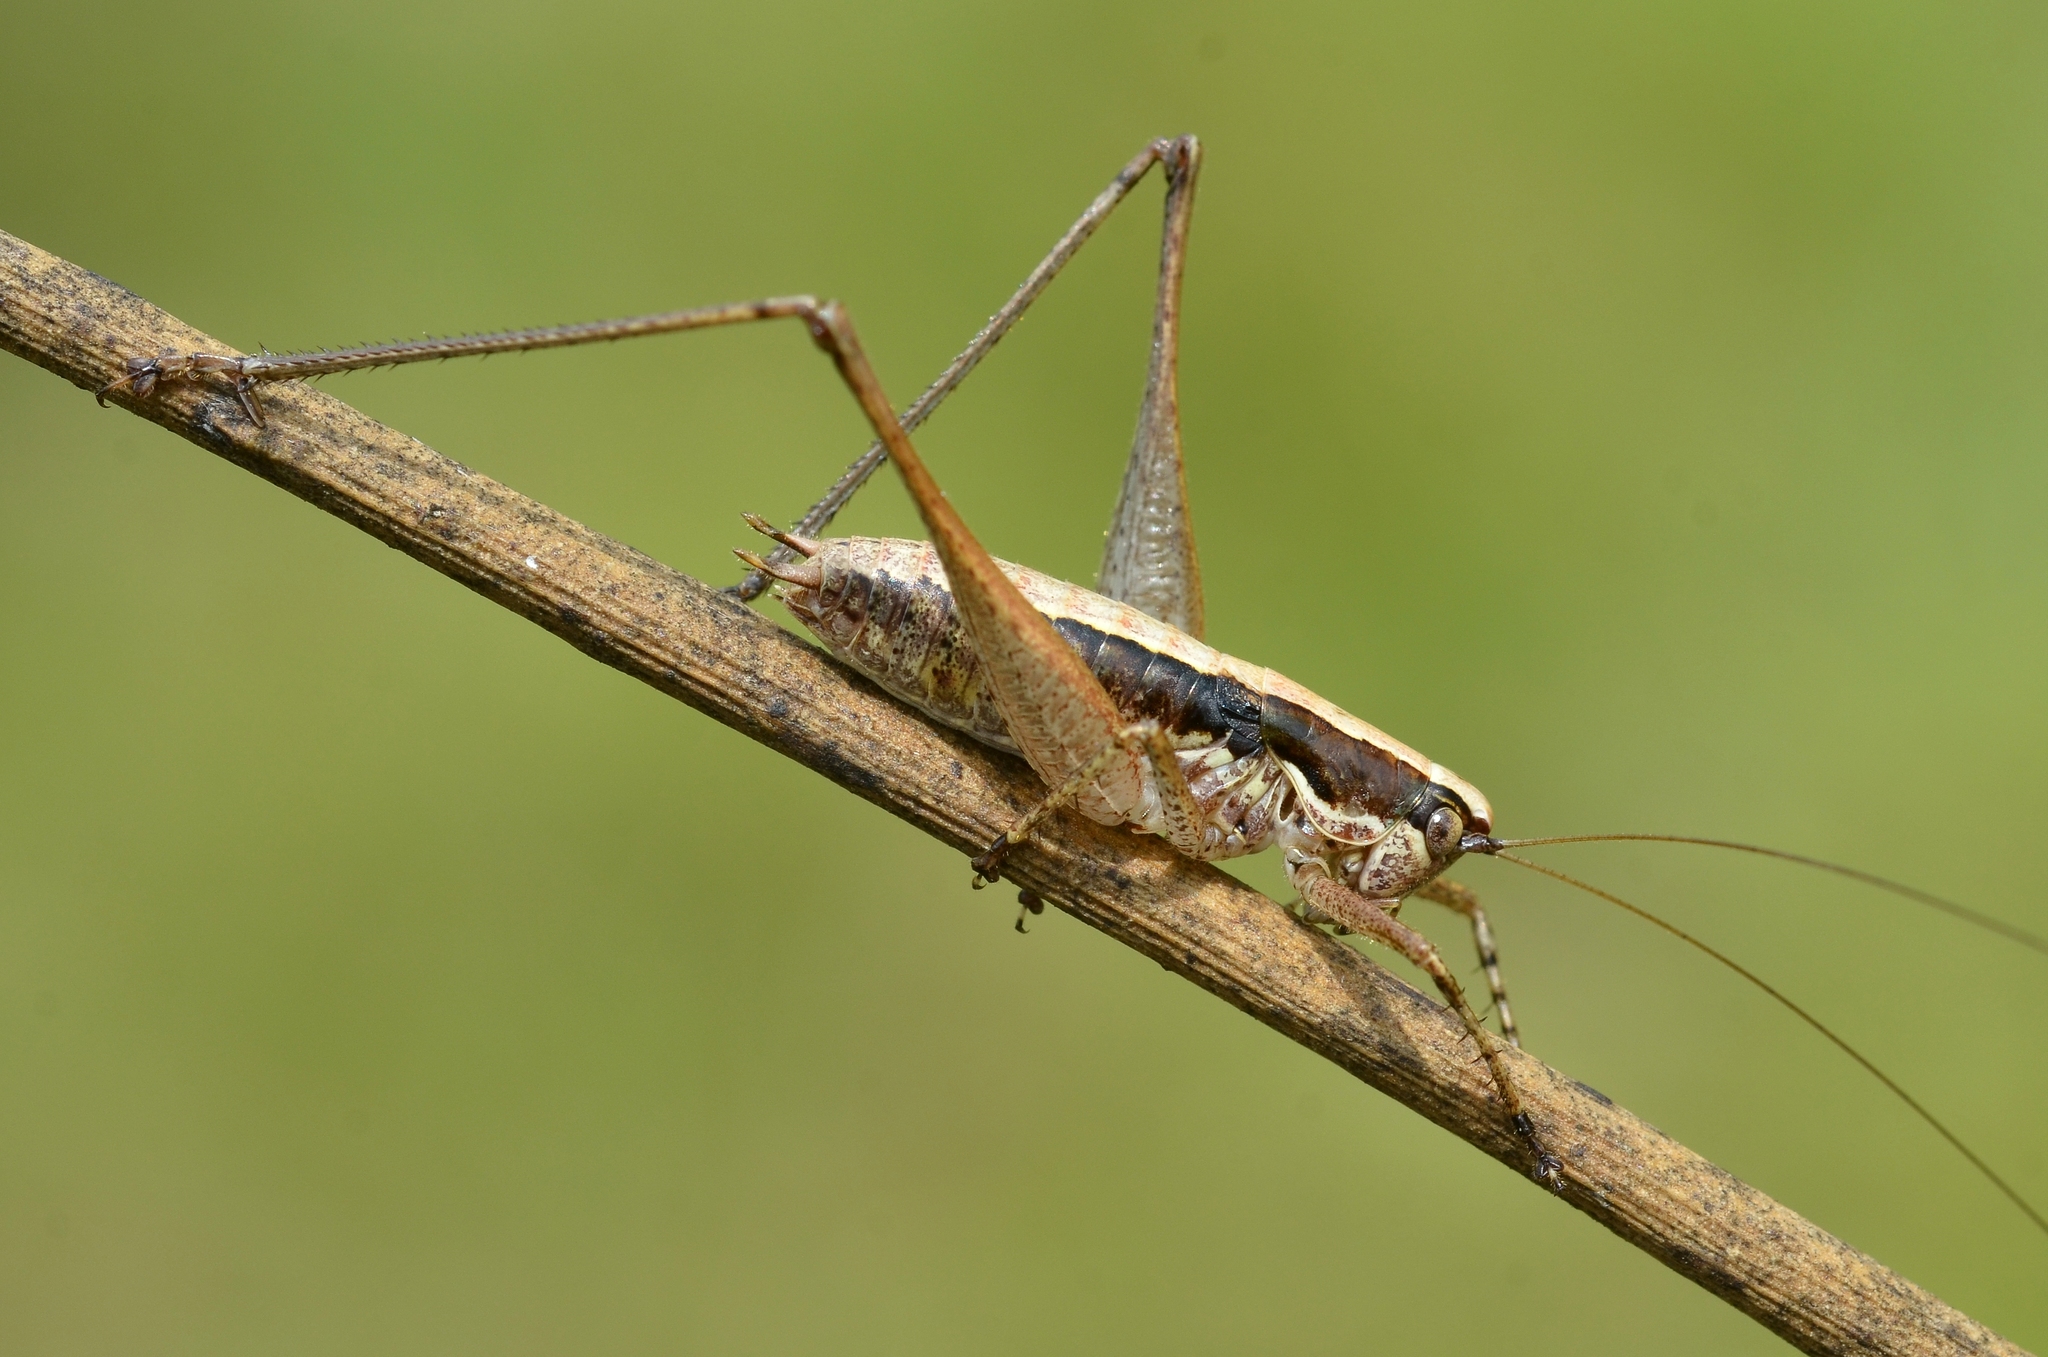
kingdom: Animalia
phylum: Arthropoda
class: Insecta
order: Orthoptera
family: Tettigoniidae
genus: Yersinella
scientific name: Yersinella raymondii
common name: Raymond's bush-cricket
